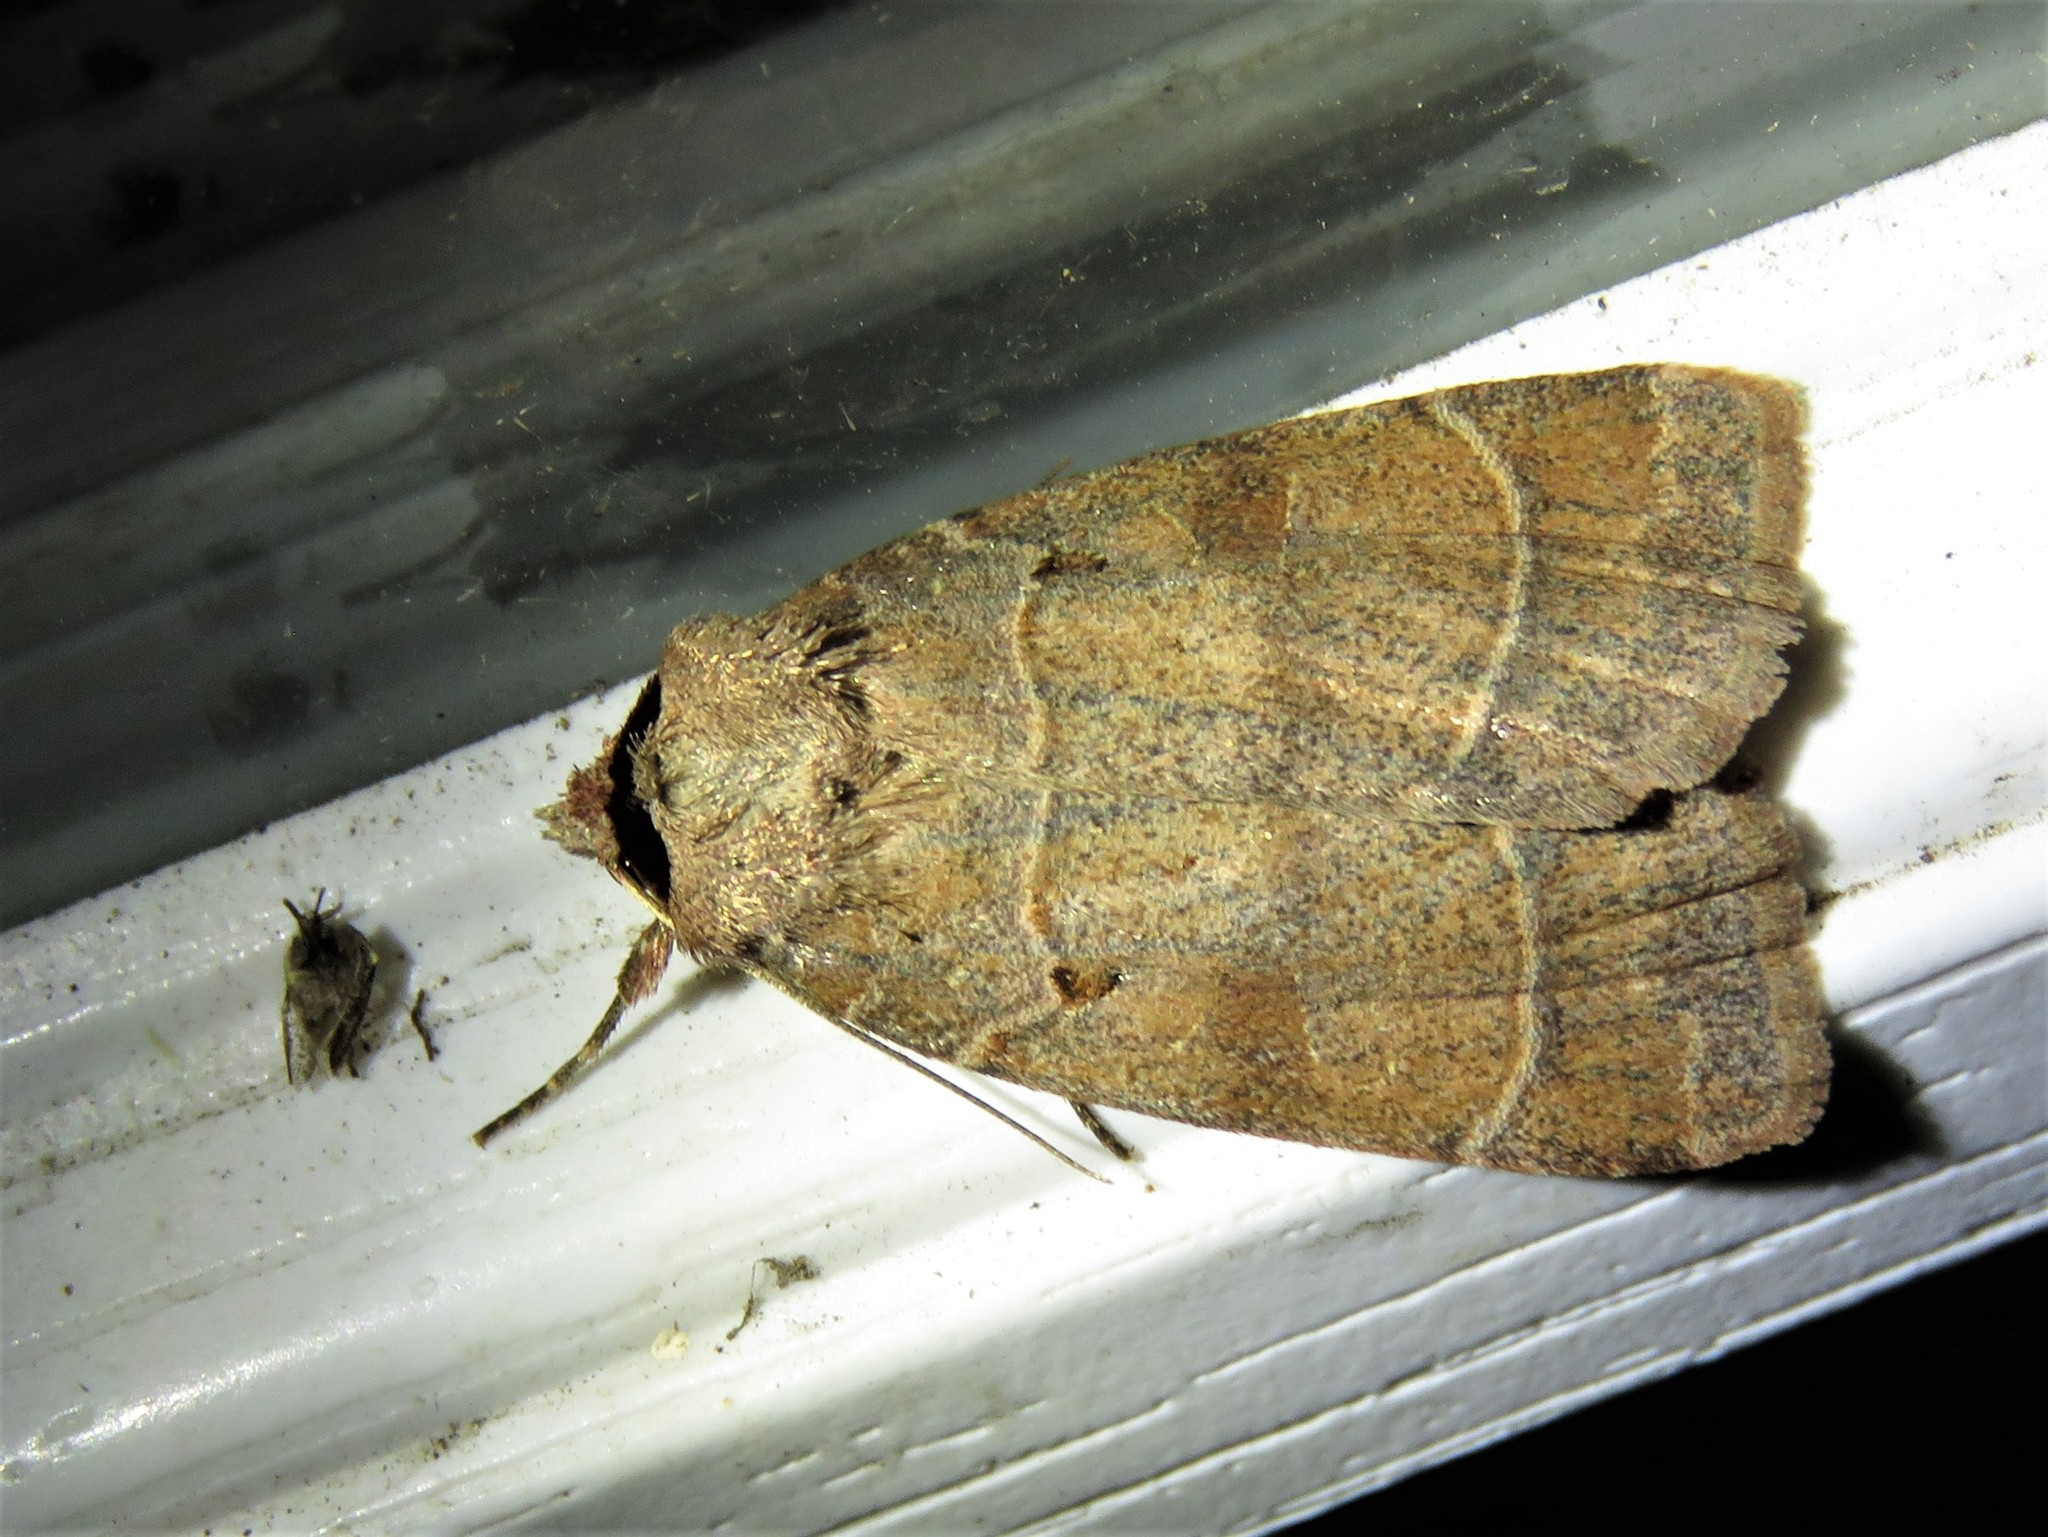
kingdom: Animalia
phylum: Arthropoda
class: Insecta
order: Lepidoptera
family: Noctuidae
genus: Agnorisma
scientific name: Agnorisma badinodis
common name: Pale-banded dart
